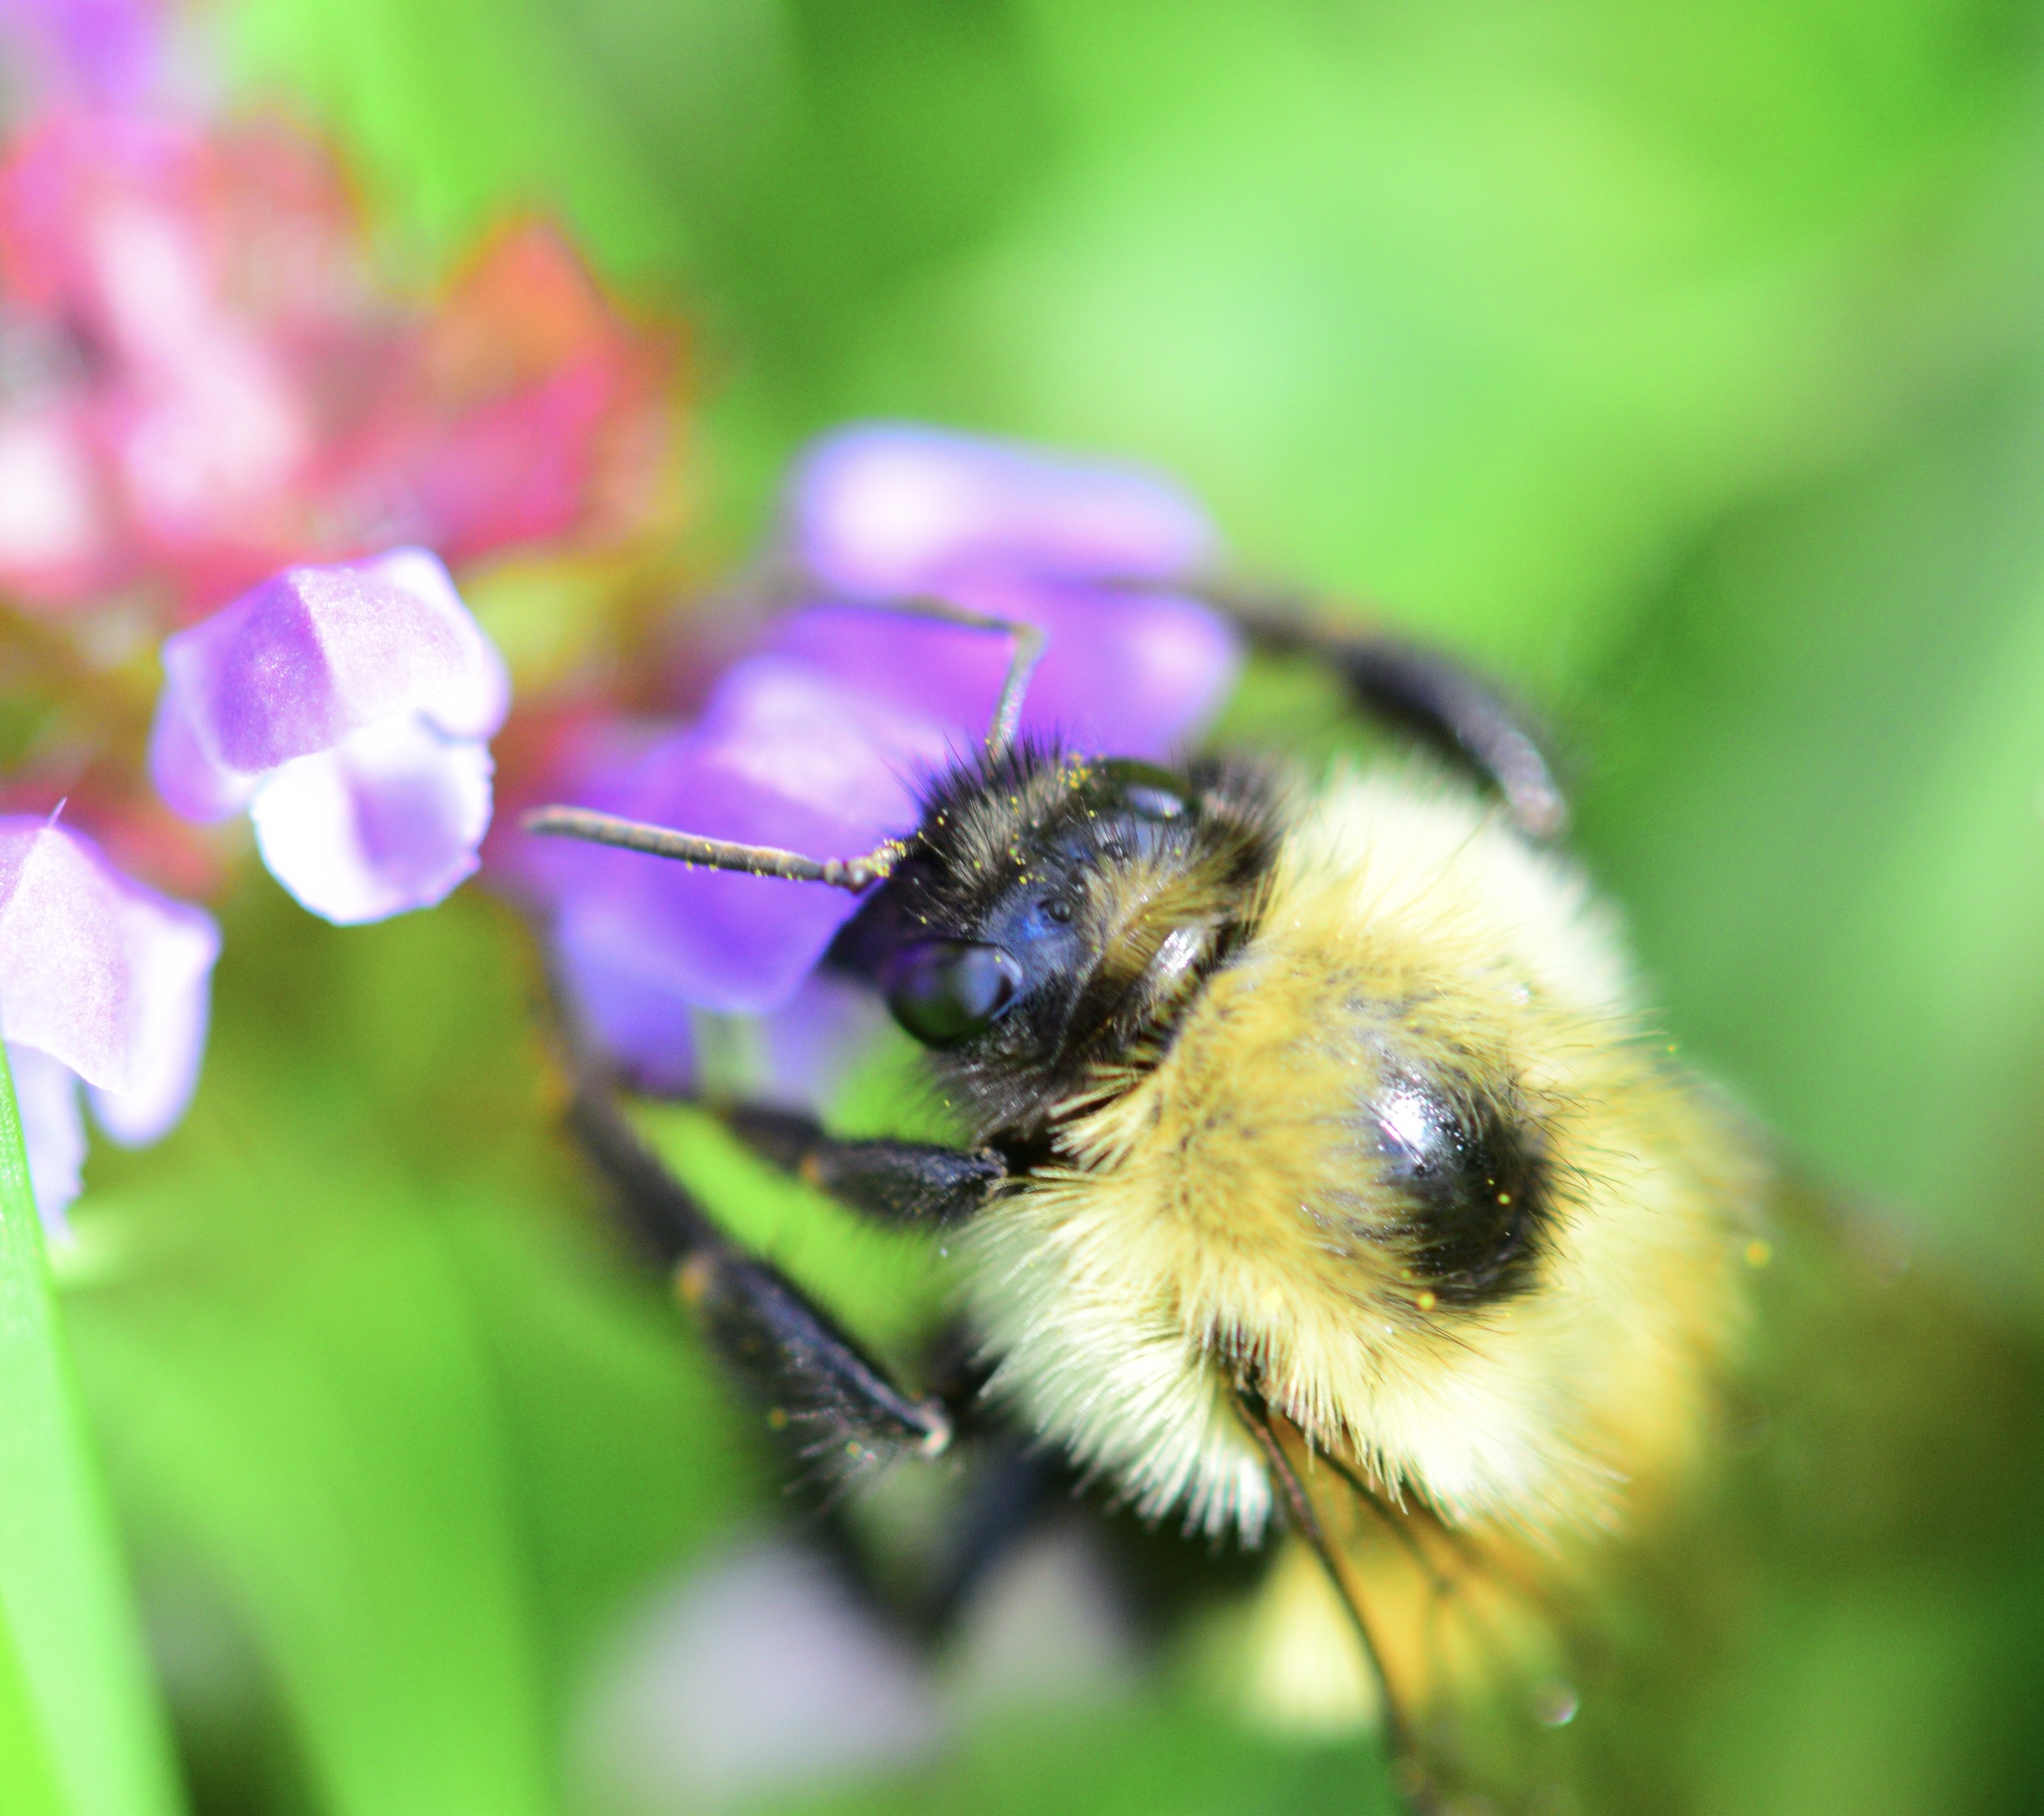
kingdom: Animalia
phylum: Arthropoda
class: Insecta
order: Hymenoptera
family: Apidae
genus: Pyrobombus
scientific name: Pyrobombus
